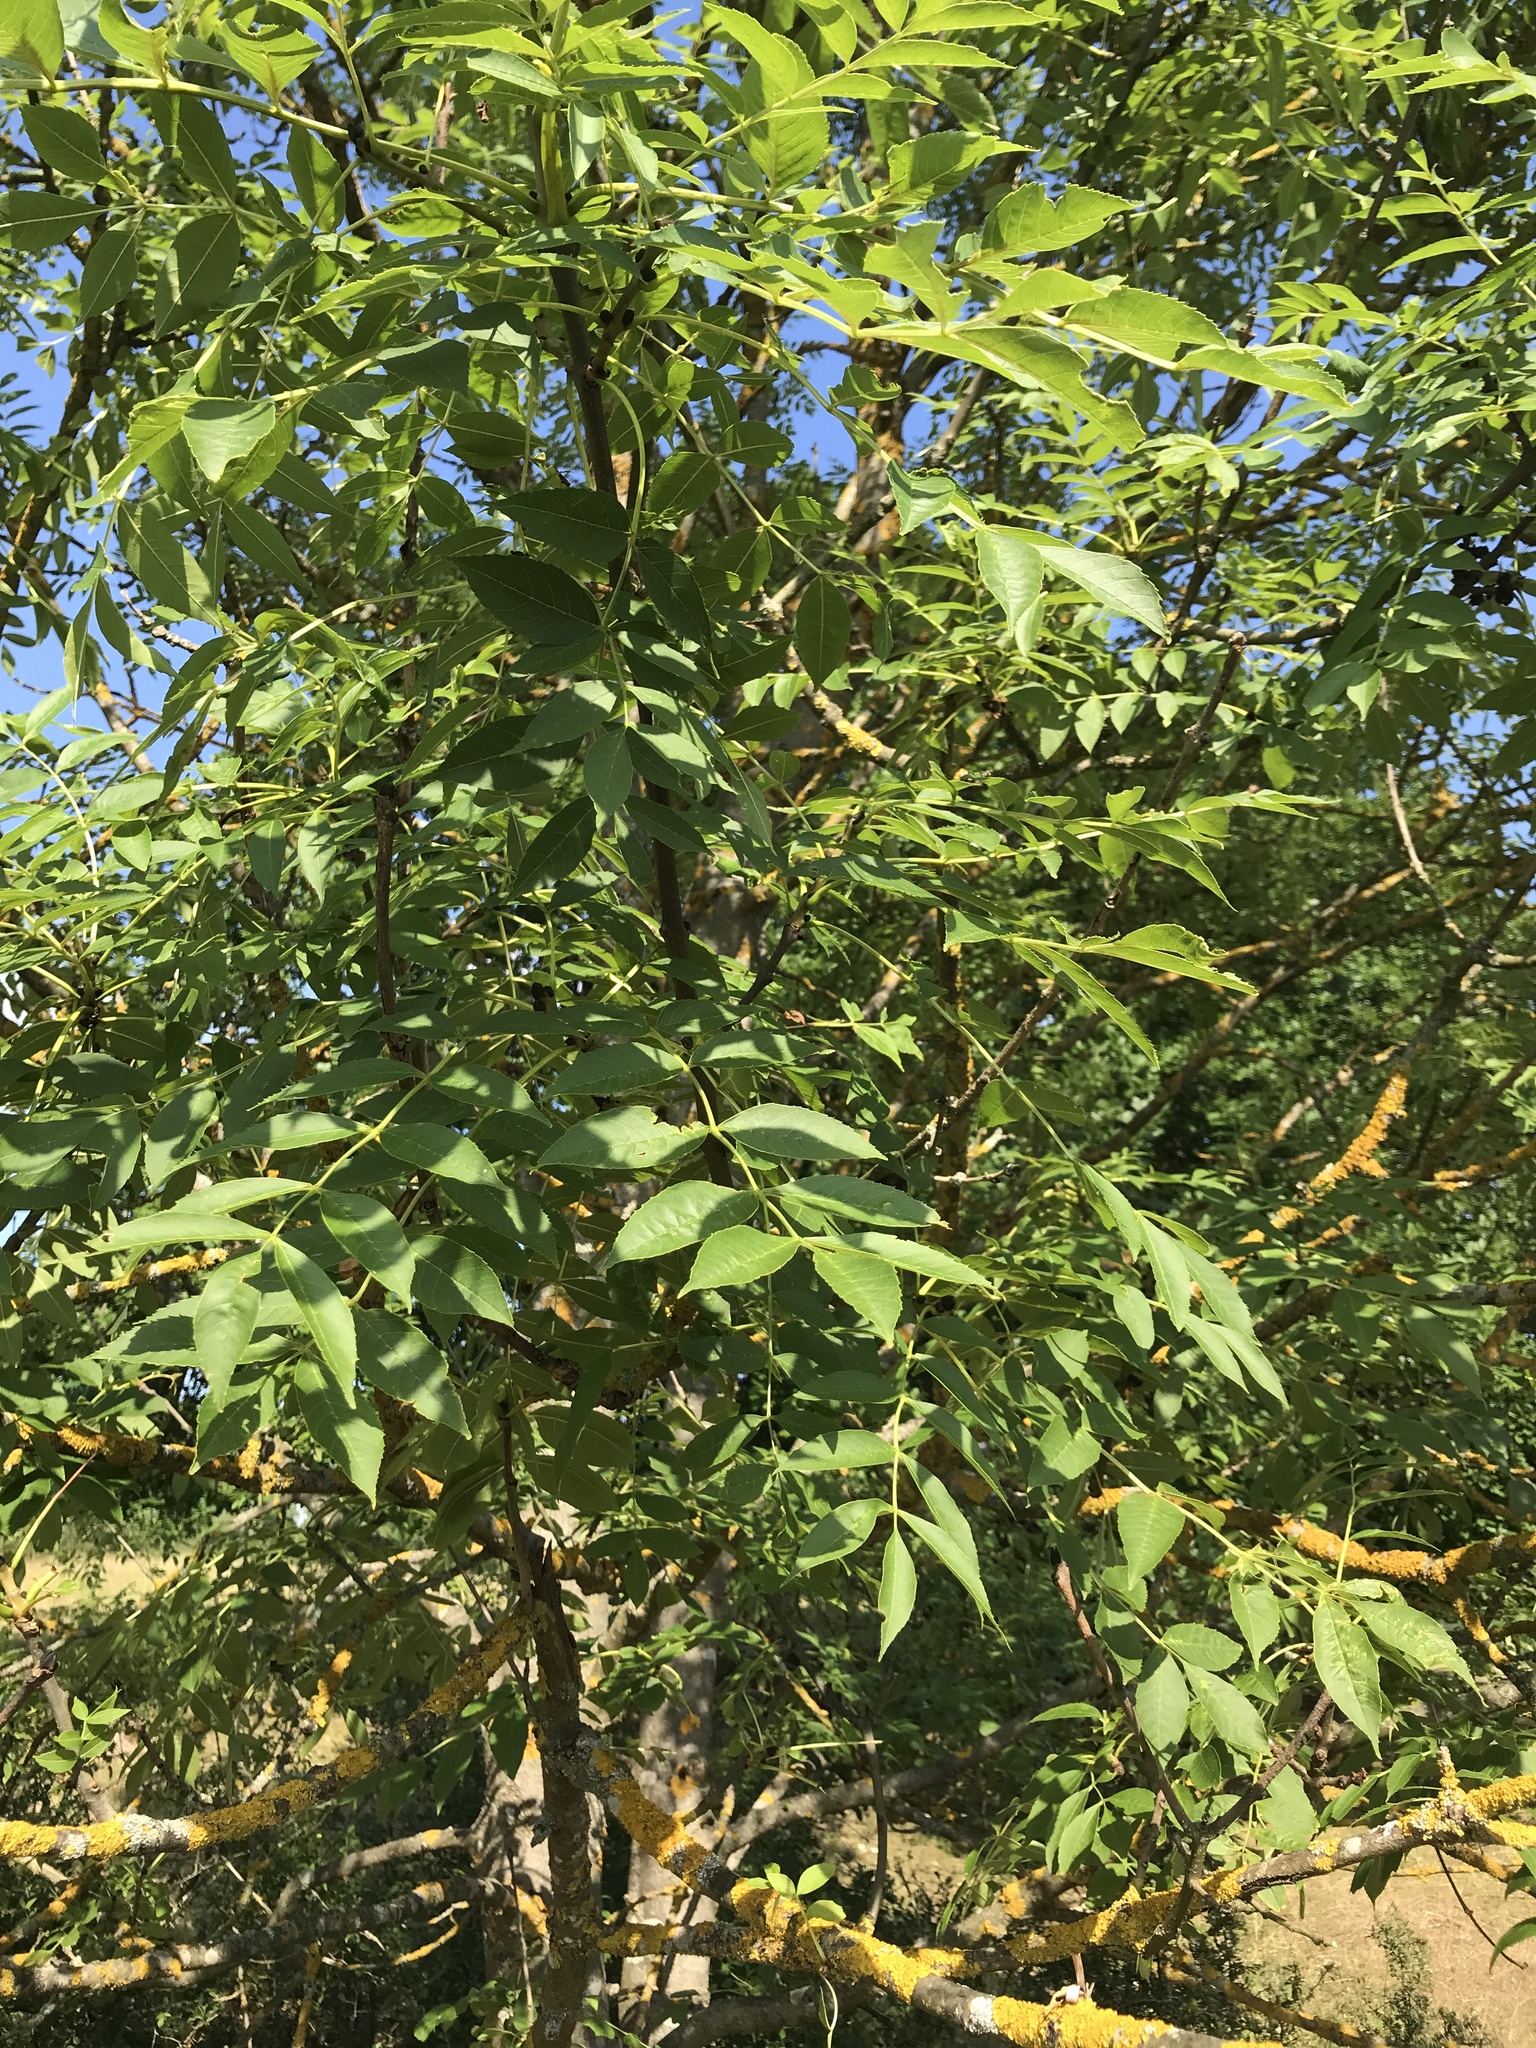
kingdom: Plantae
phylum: Tracheophyta
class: Magnoliopsida
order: Lamiales
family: Oleaceae
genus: Fraxinus
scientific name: Fraxinus excelsior
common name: European ash
